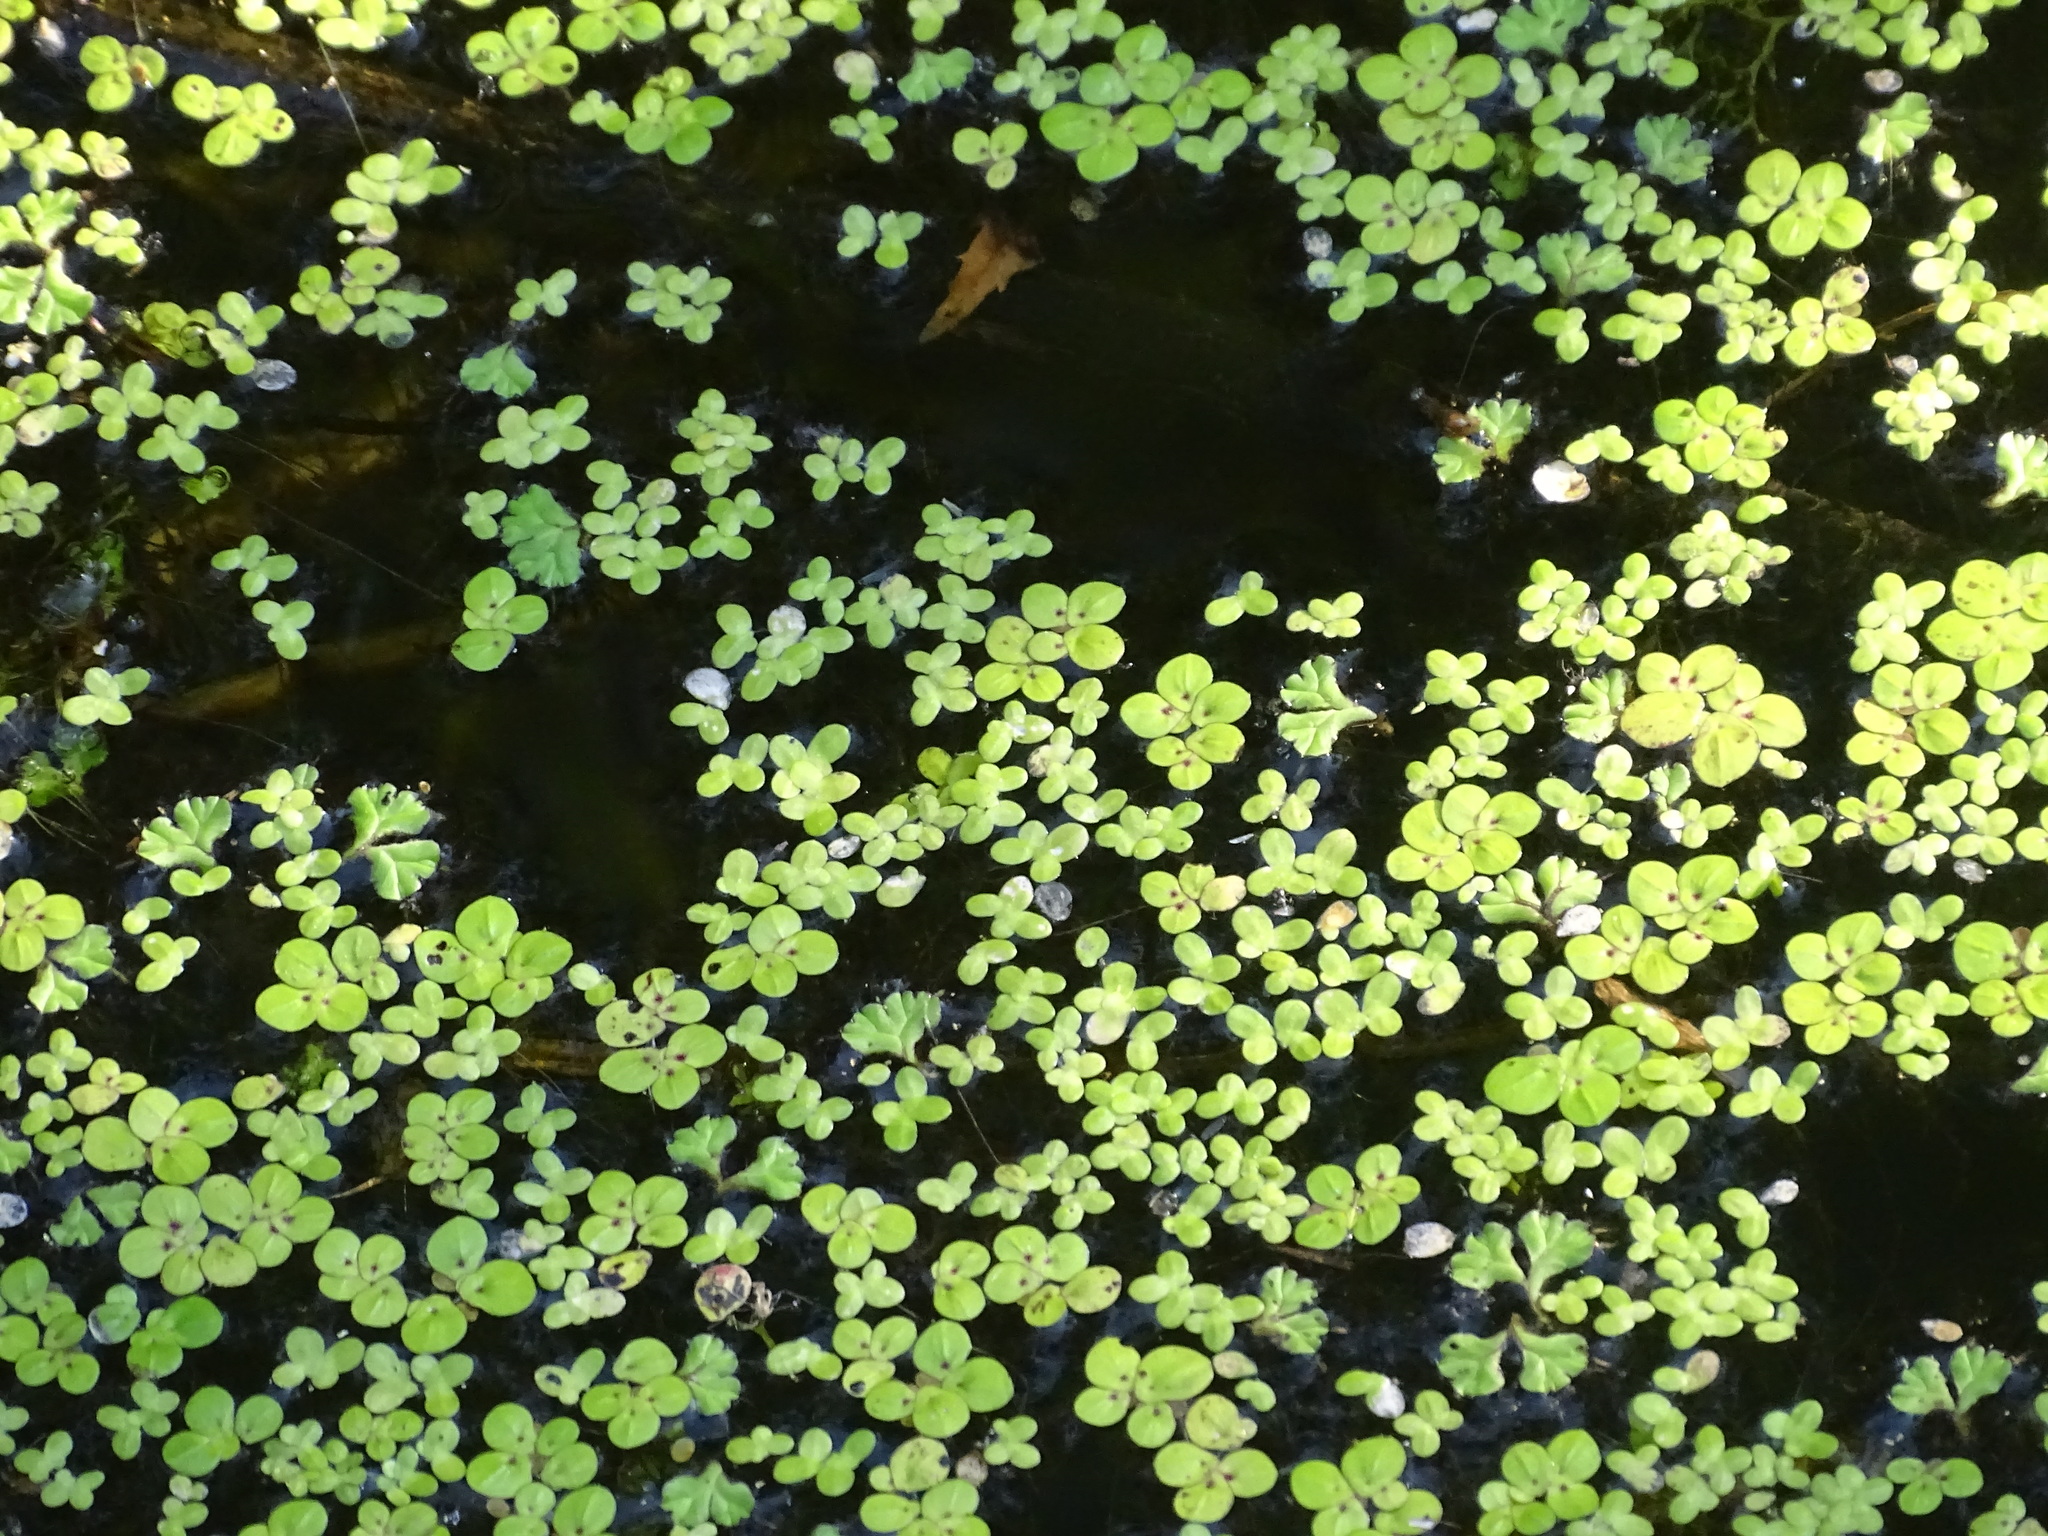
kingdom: Plantae
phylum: Tracheophyta
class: Liliopsida
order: Alismatales
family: Araceae
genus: Lemna
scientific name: Lemna minor
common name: Common duckweed
